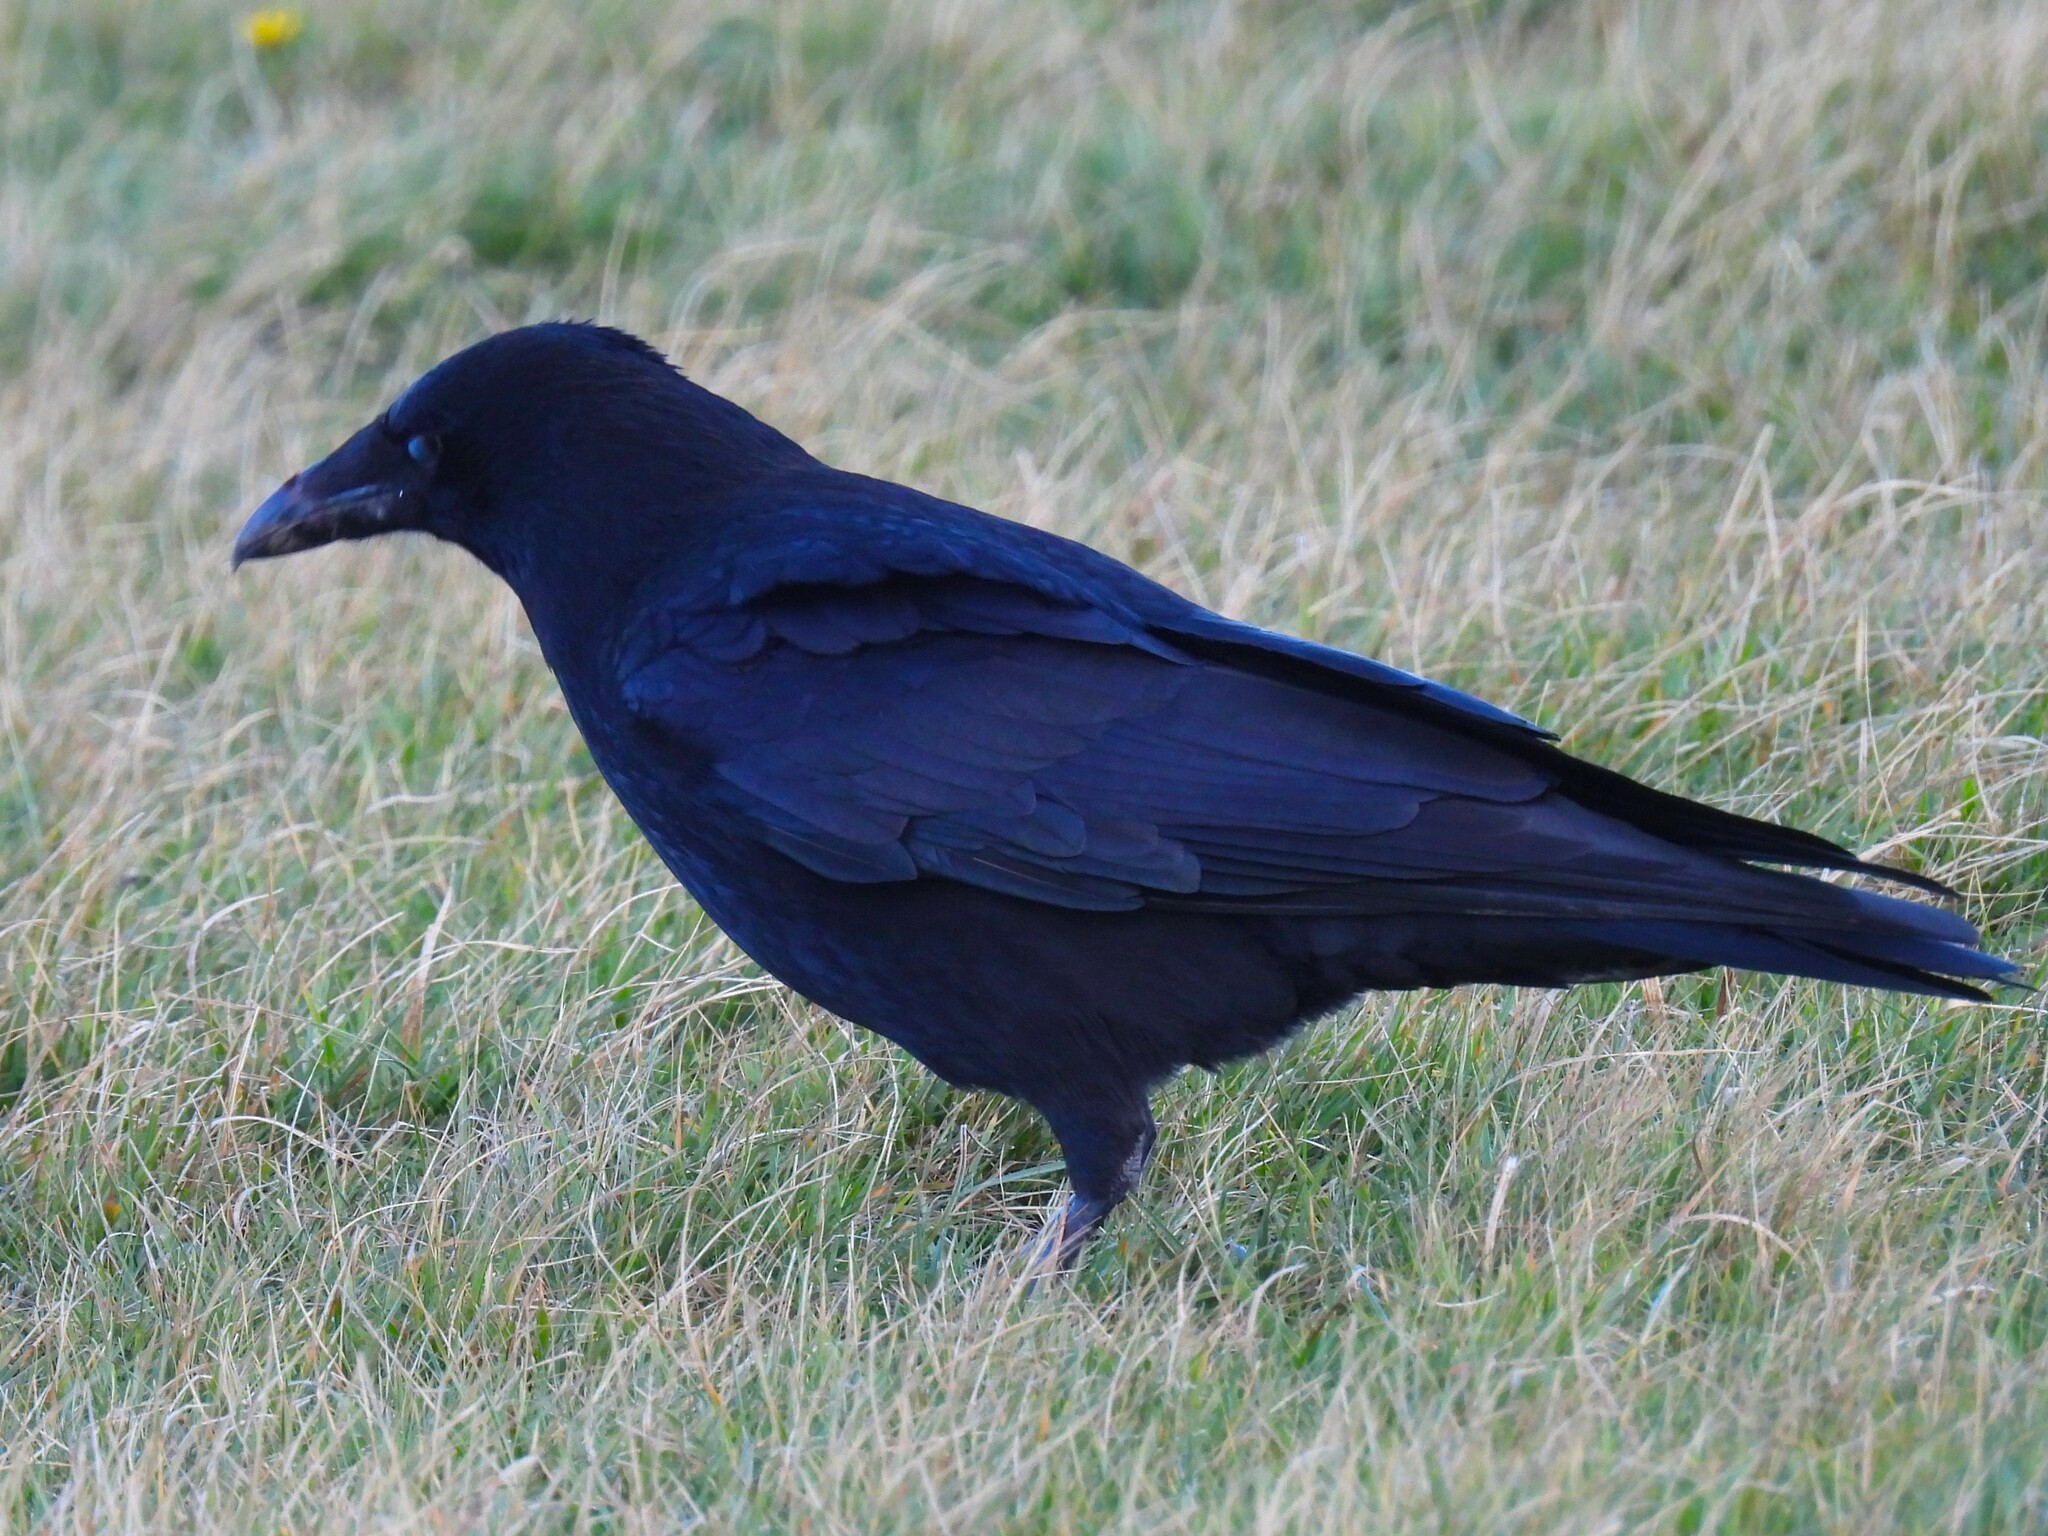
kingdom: Animalia
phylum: Chordata
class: Aves
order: Passeriformes
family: Corvidae
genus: Corvus
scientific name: Corvus corone
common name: Carrion crow
